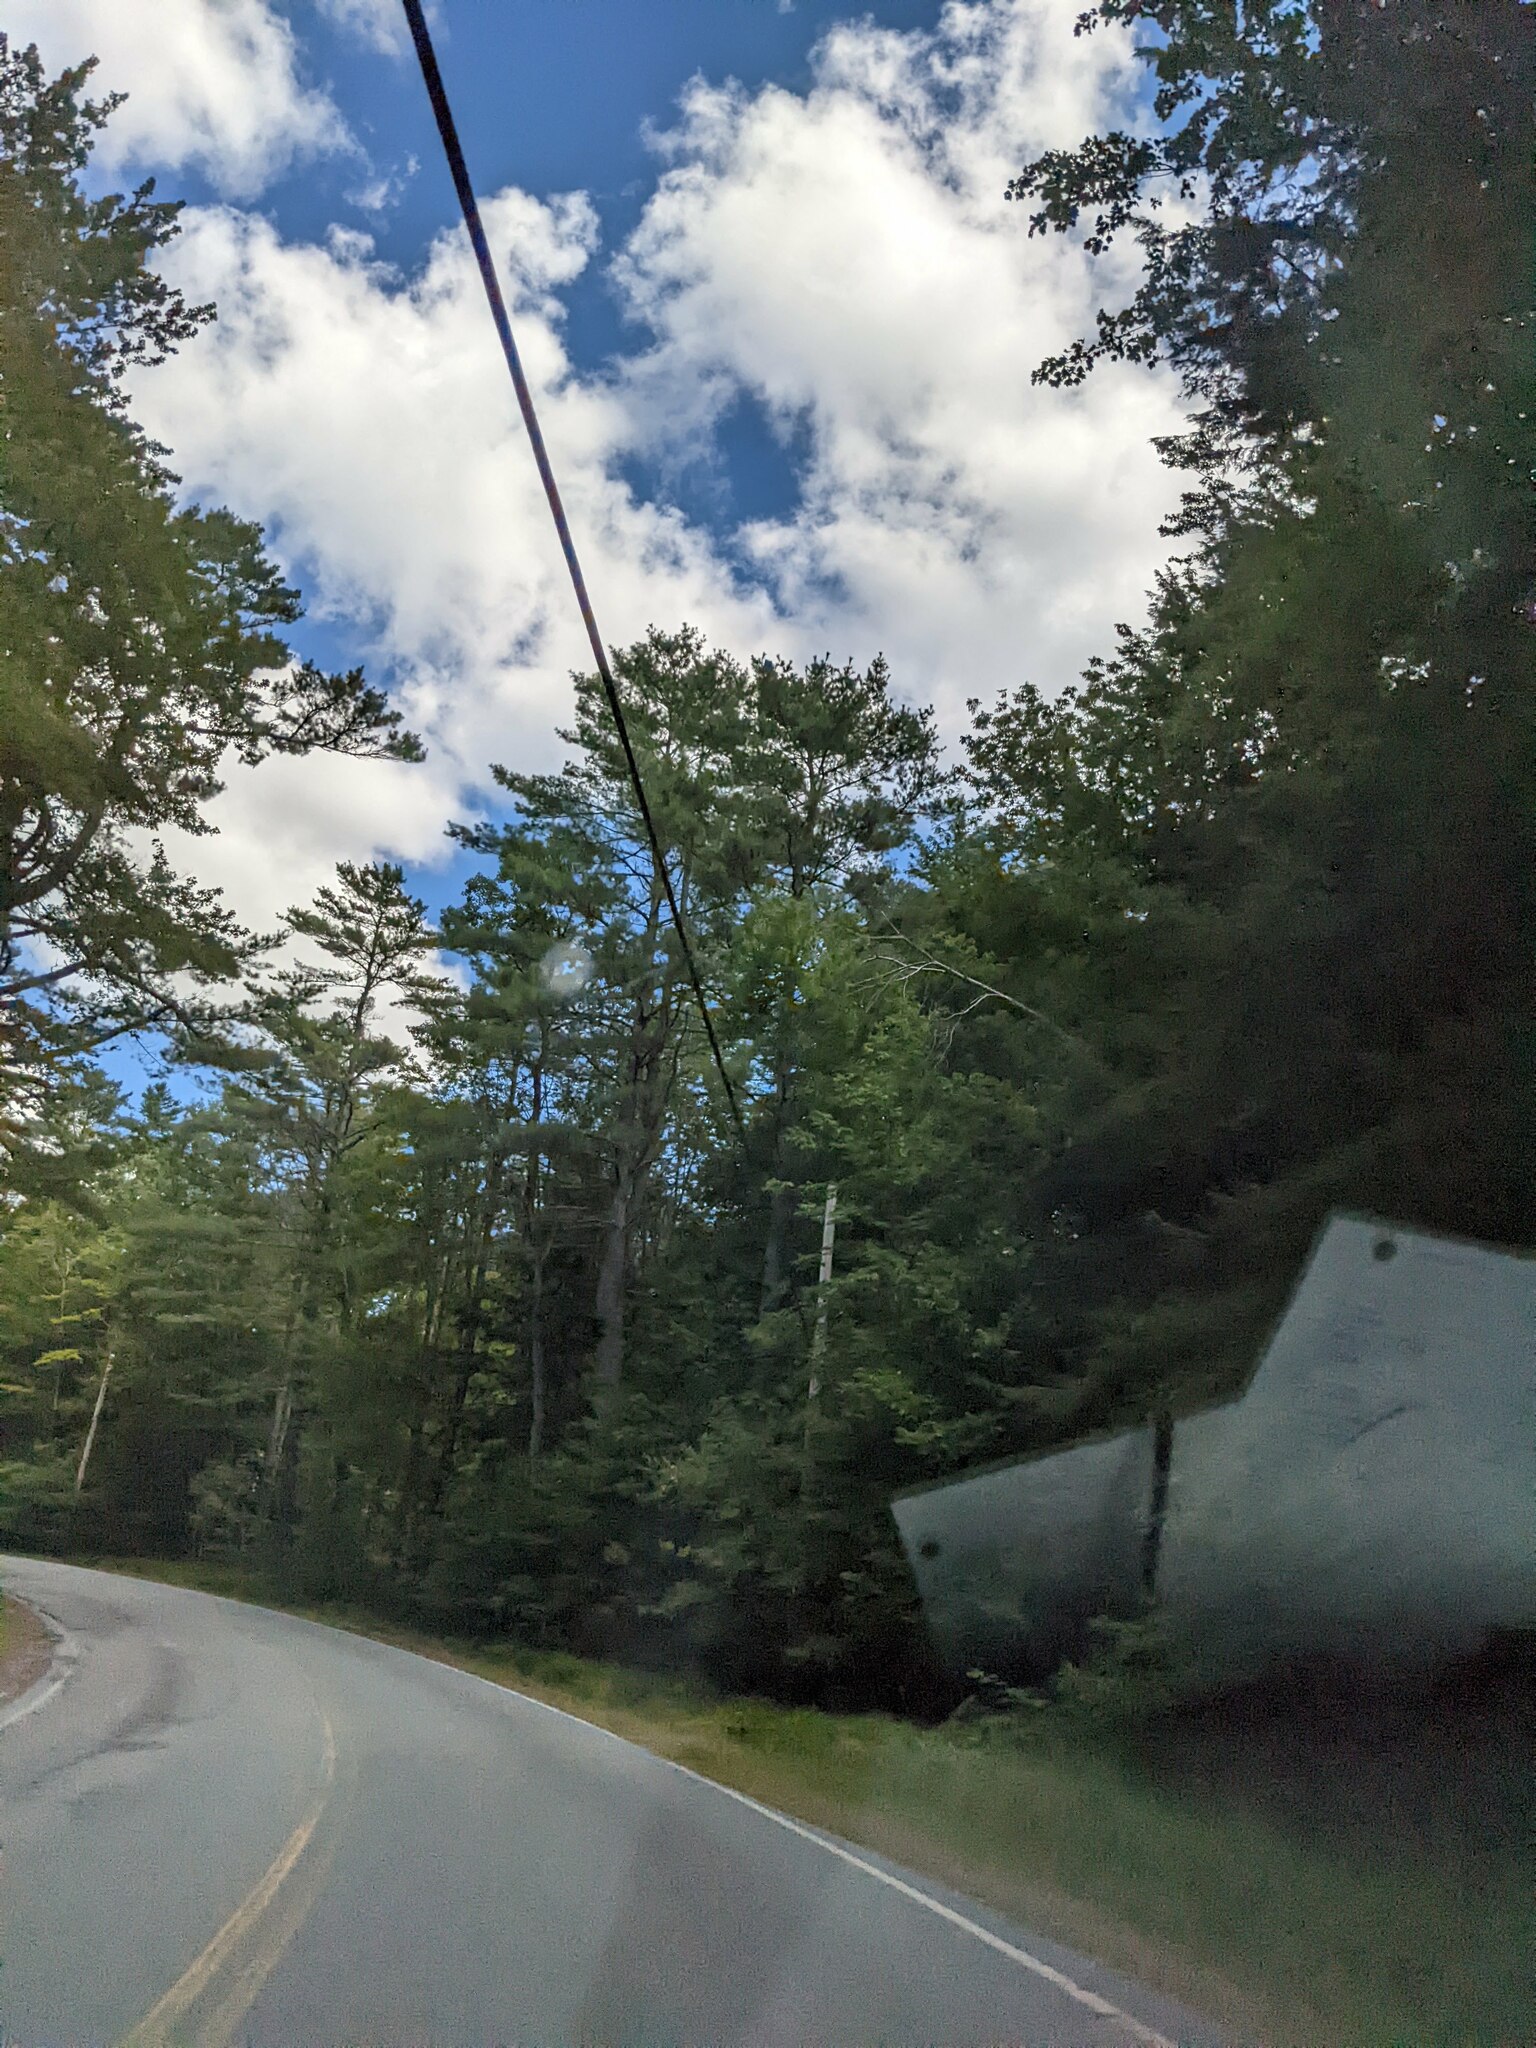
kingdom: Plantae
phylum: Tracheophyta
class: Pinopsida
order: Pinales
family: Pinaceae
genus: Pinus
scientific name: Pinus strobus
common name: Weymouth pine
